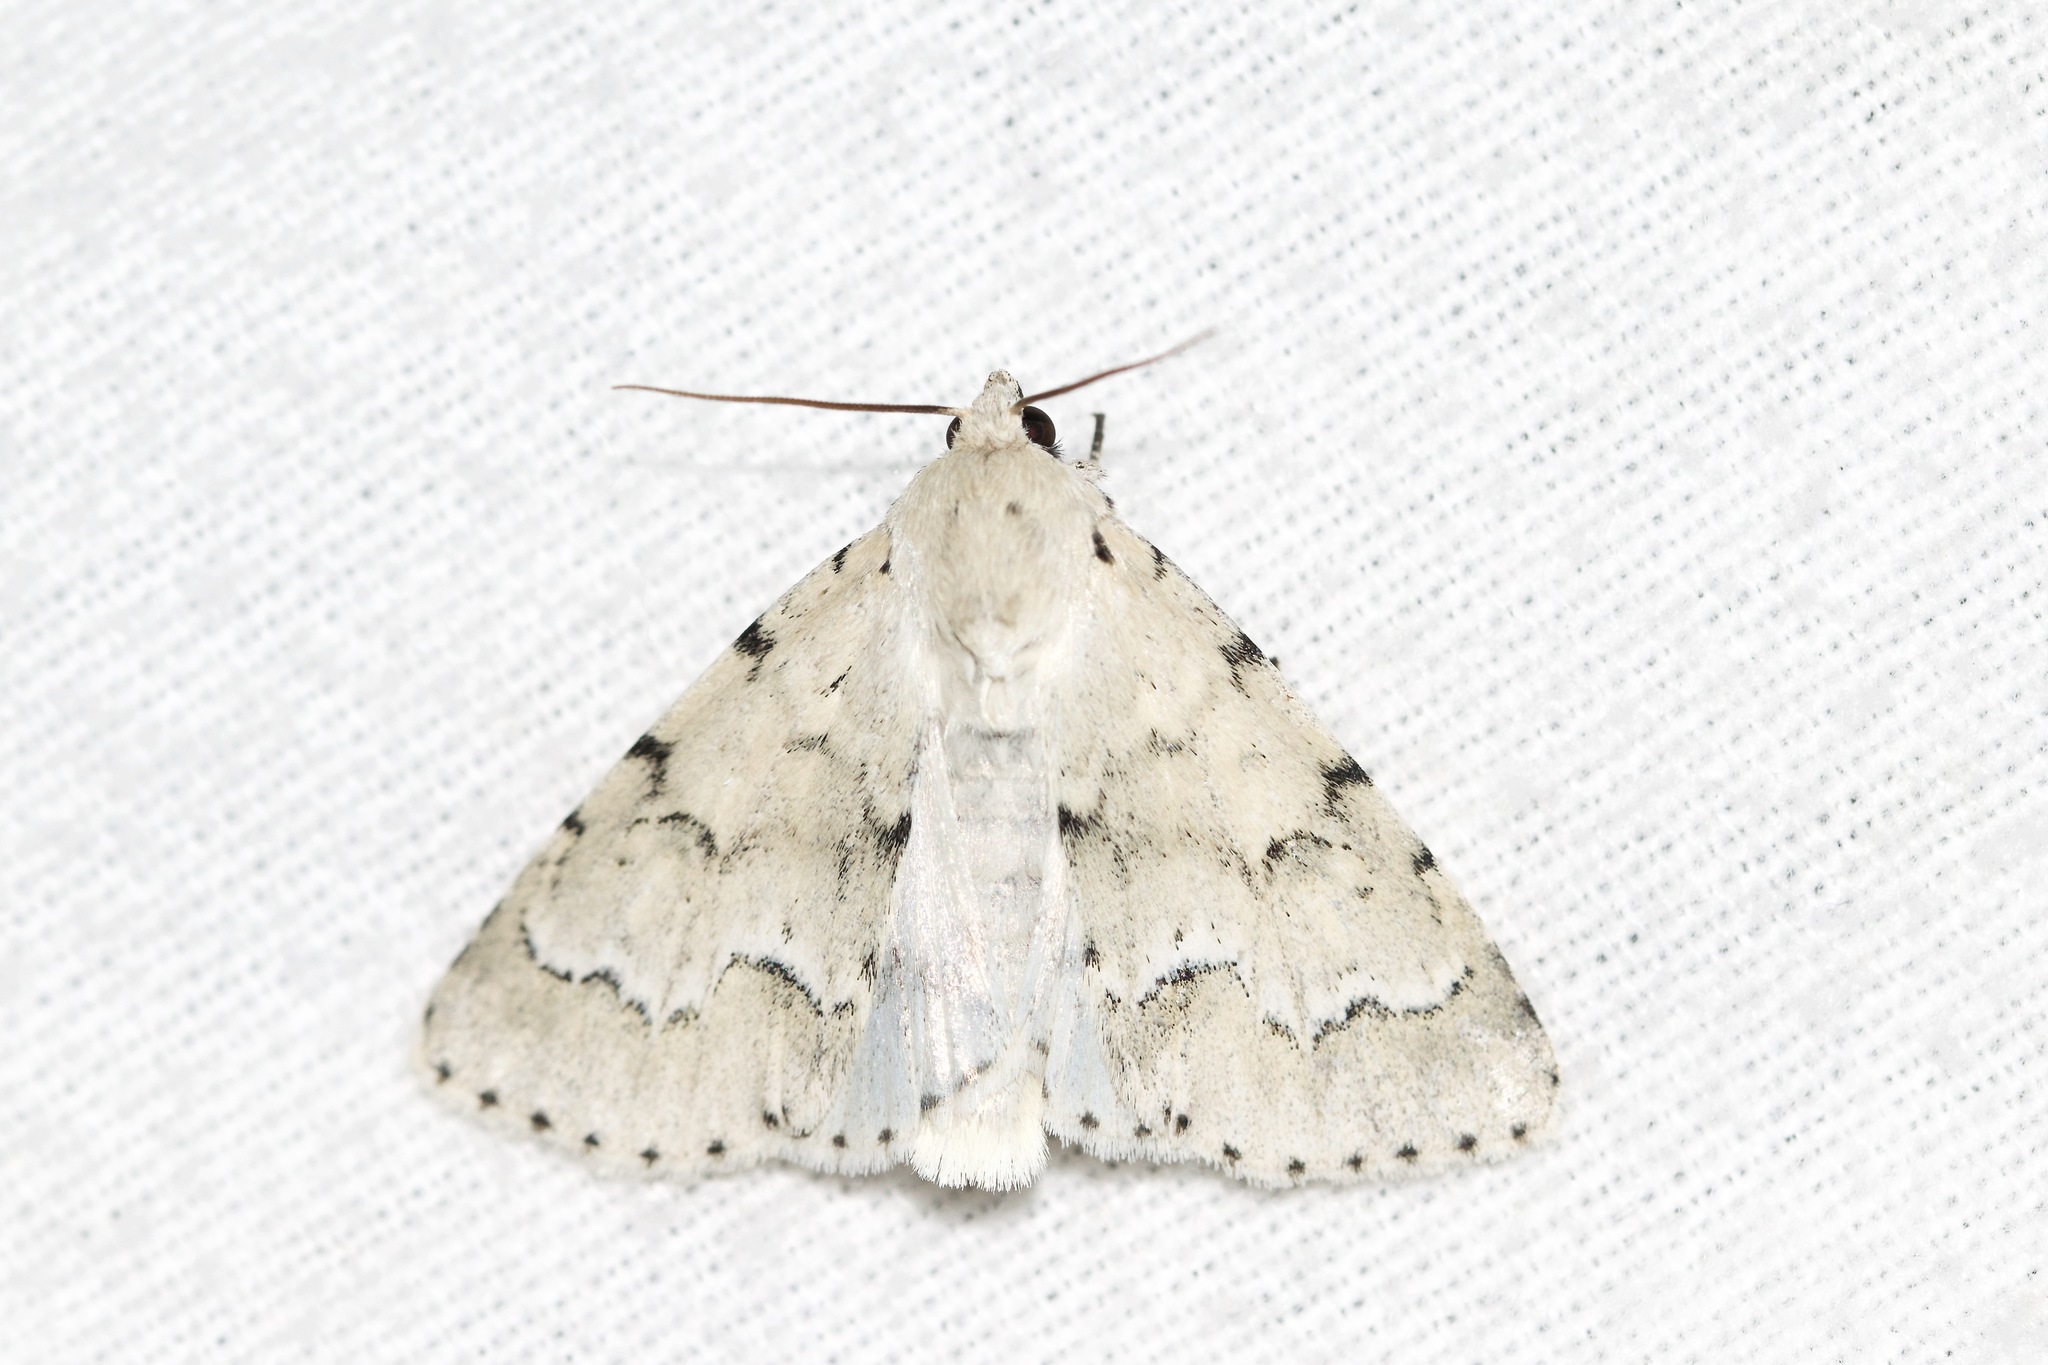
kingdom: Animalia
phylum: Arthropoda
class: Insecta
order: Lepidoptera
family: Noctuidae
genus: Acronicta
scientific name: Acronicta innotata
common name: Unmarked dagger
